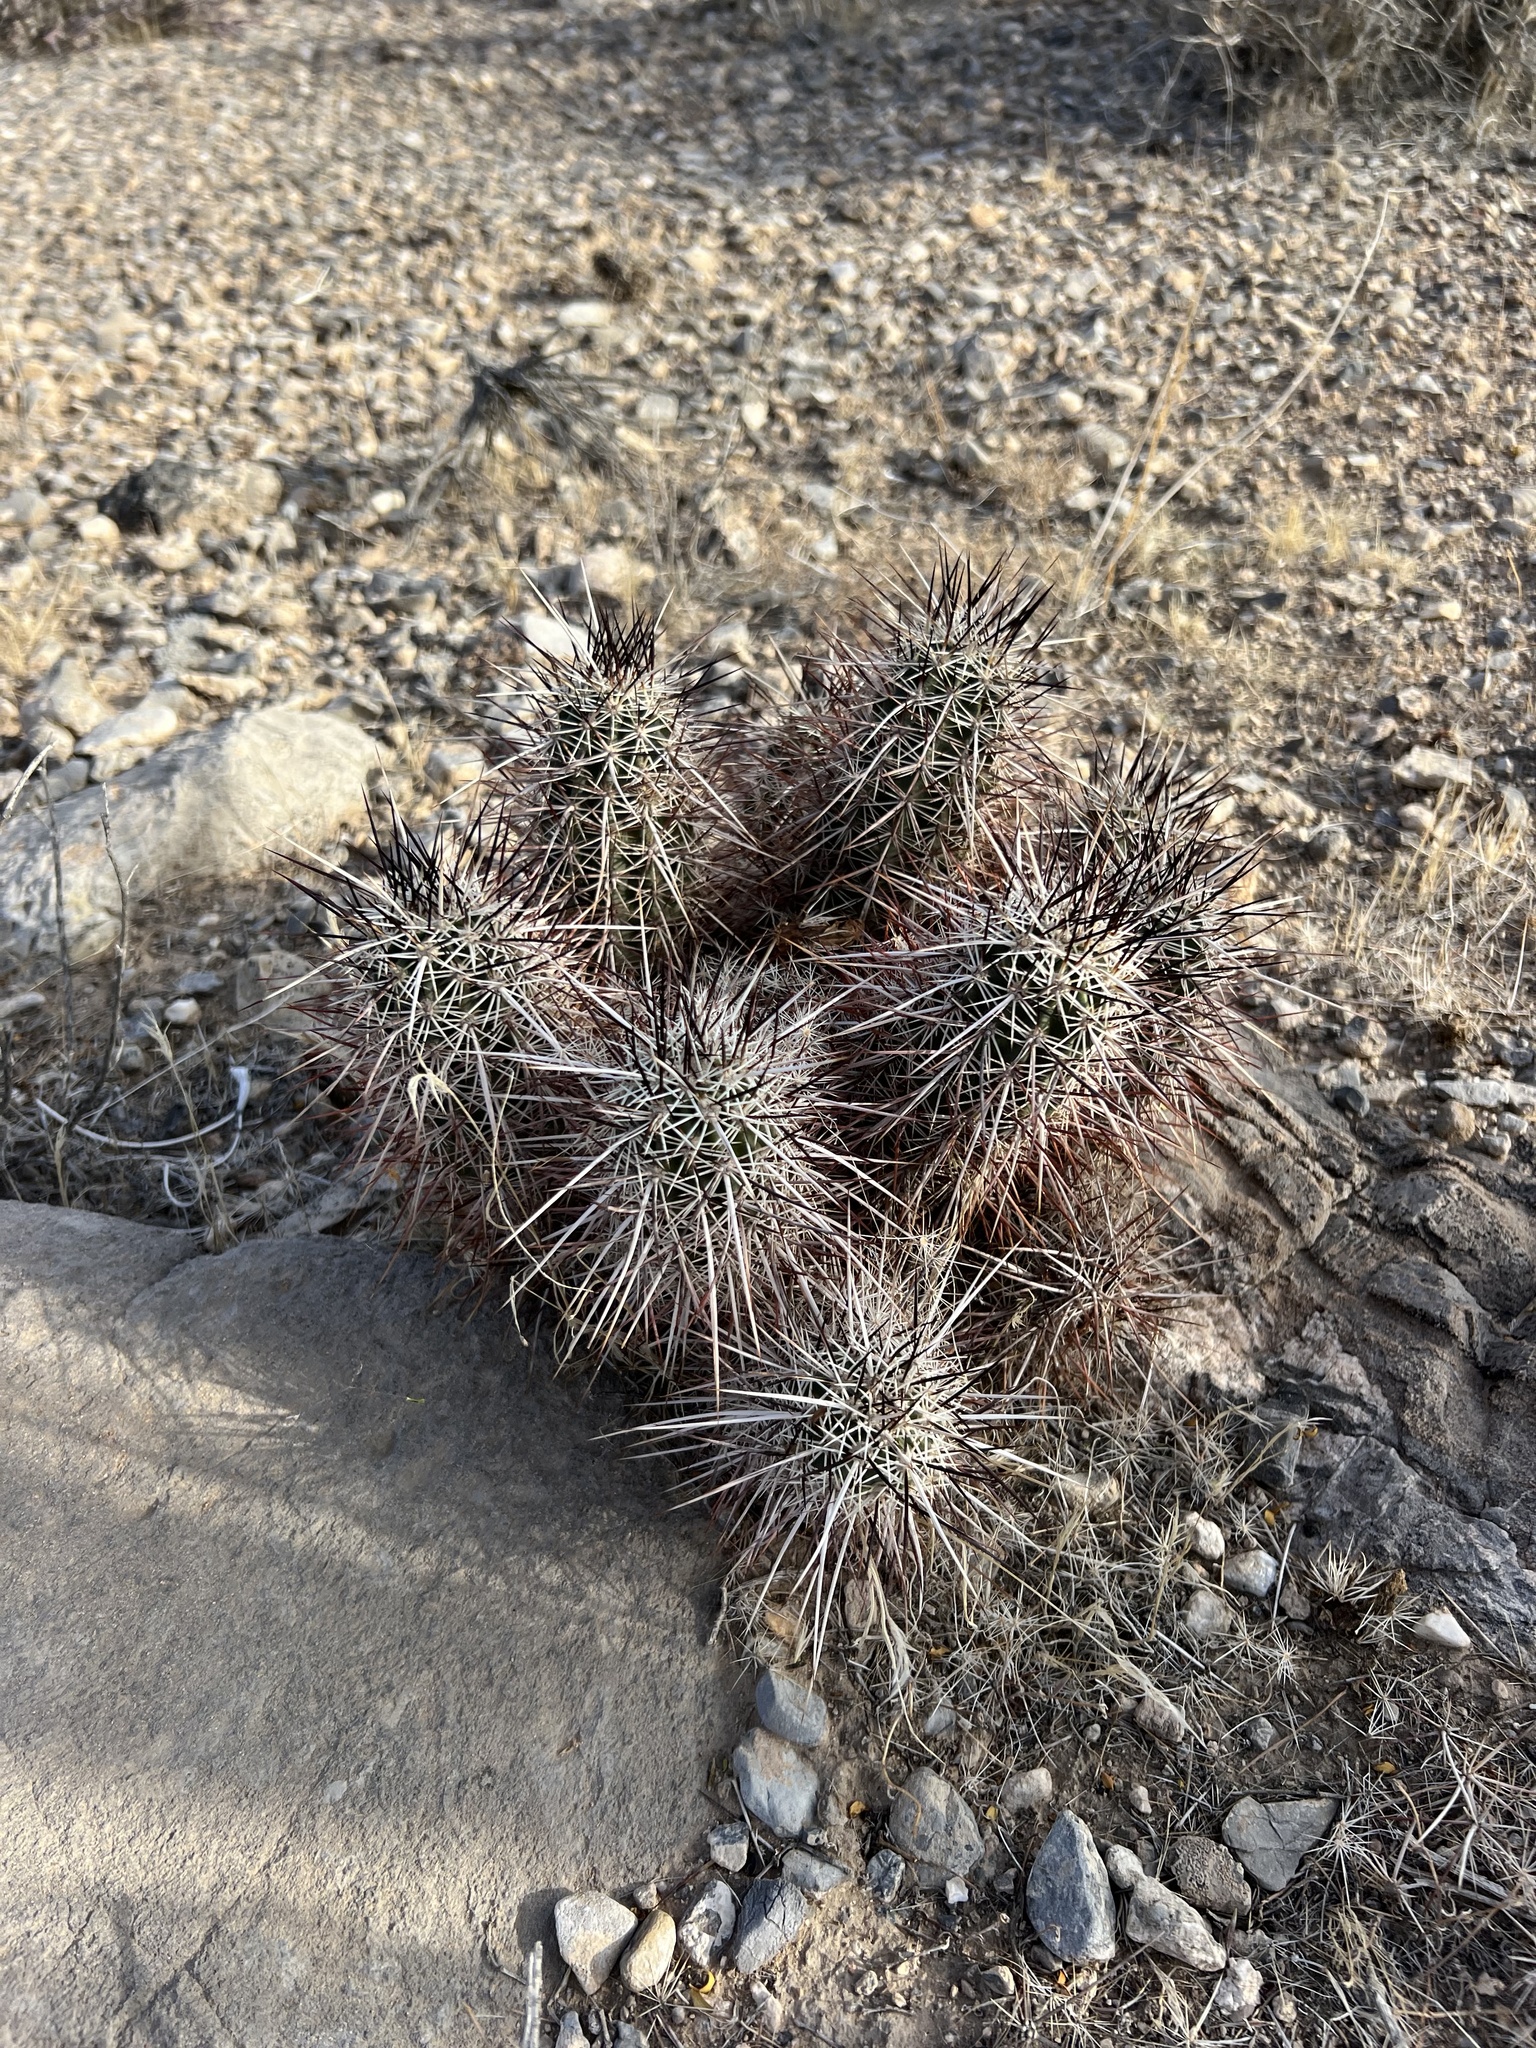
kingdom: Plantae
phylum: Tracheophyta
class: Magnoliopsida
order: Caryophyllales
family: Cactaceae
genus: Echinocereus
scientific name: Echinocereus engelmannii
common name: Engelmann's hedgehog cactus
